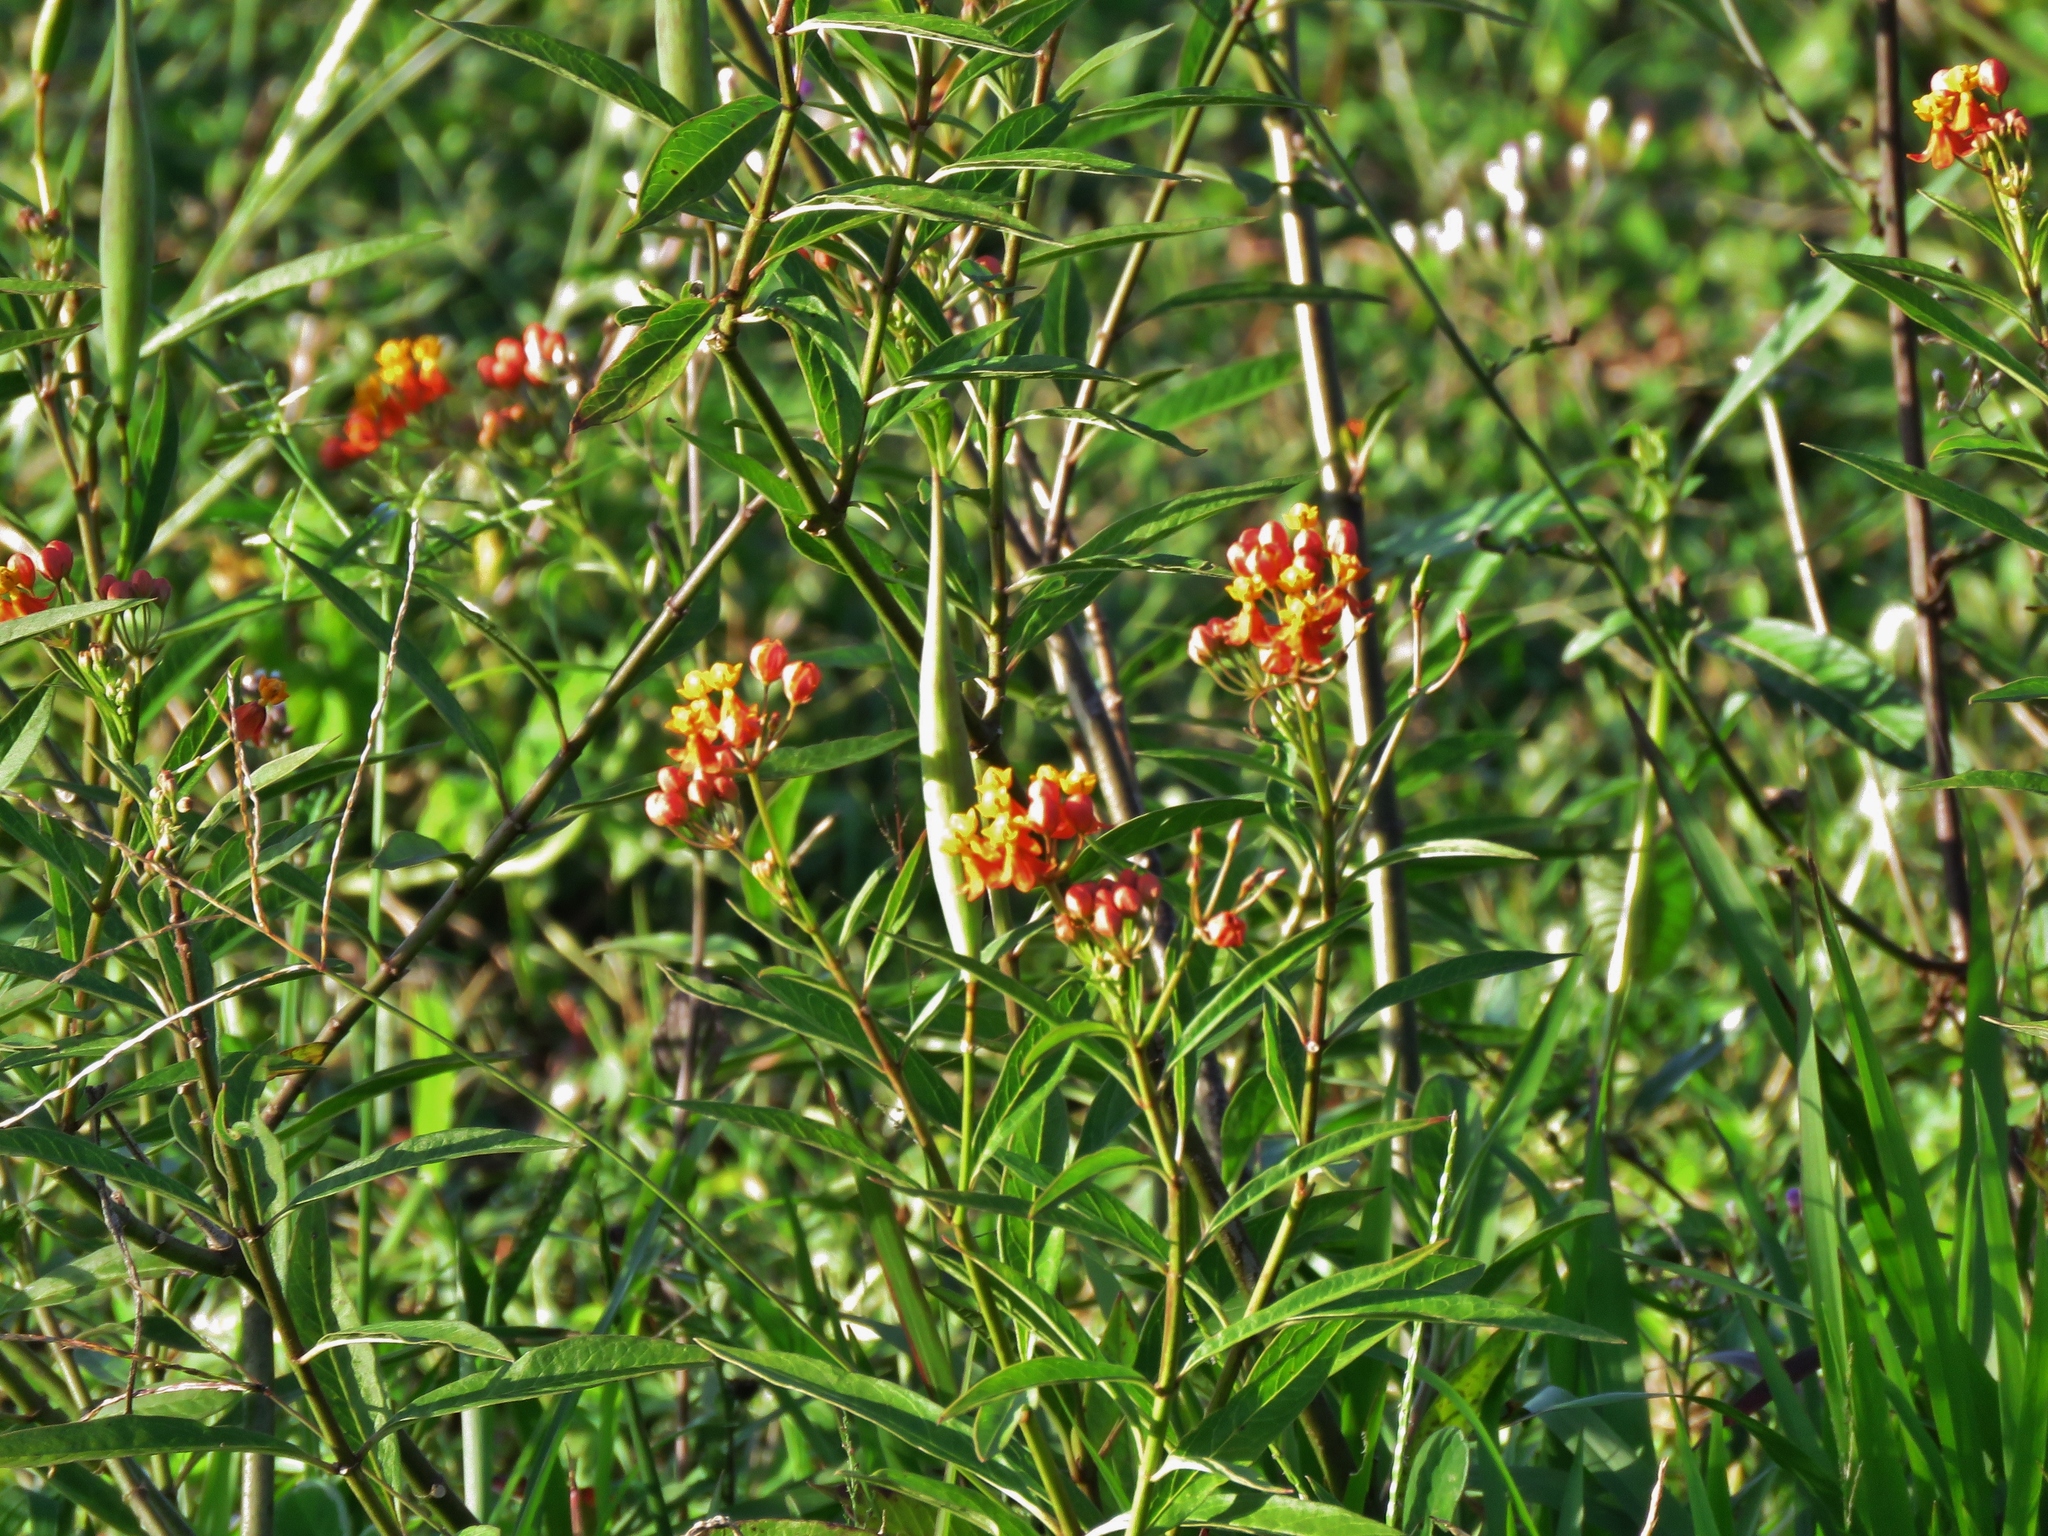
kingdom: Plantae
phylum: Tracheophyta
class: Magnoliopsida
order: Gentianales
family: Apocynaceae
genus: Asclepias
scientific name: Asclepias curassavica
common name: Bloodflower
